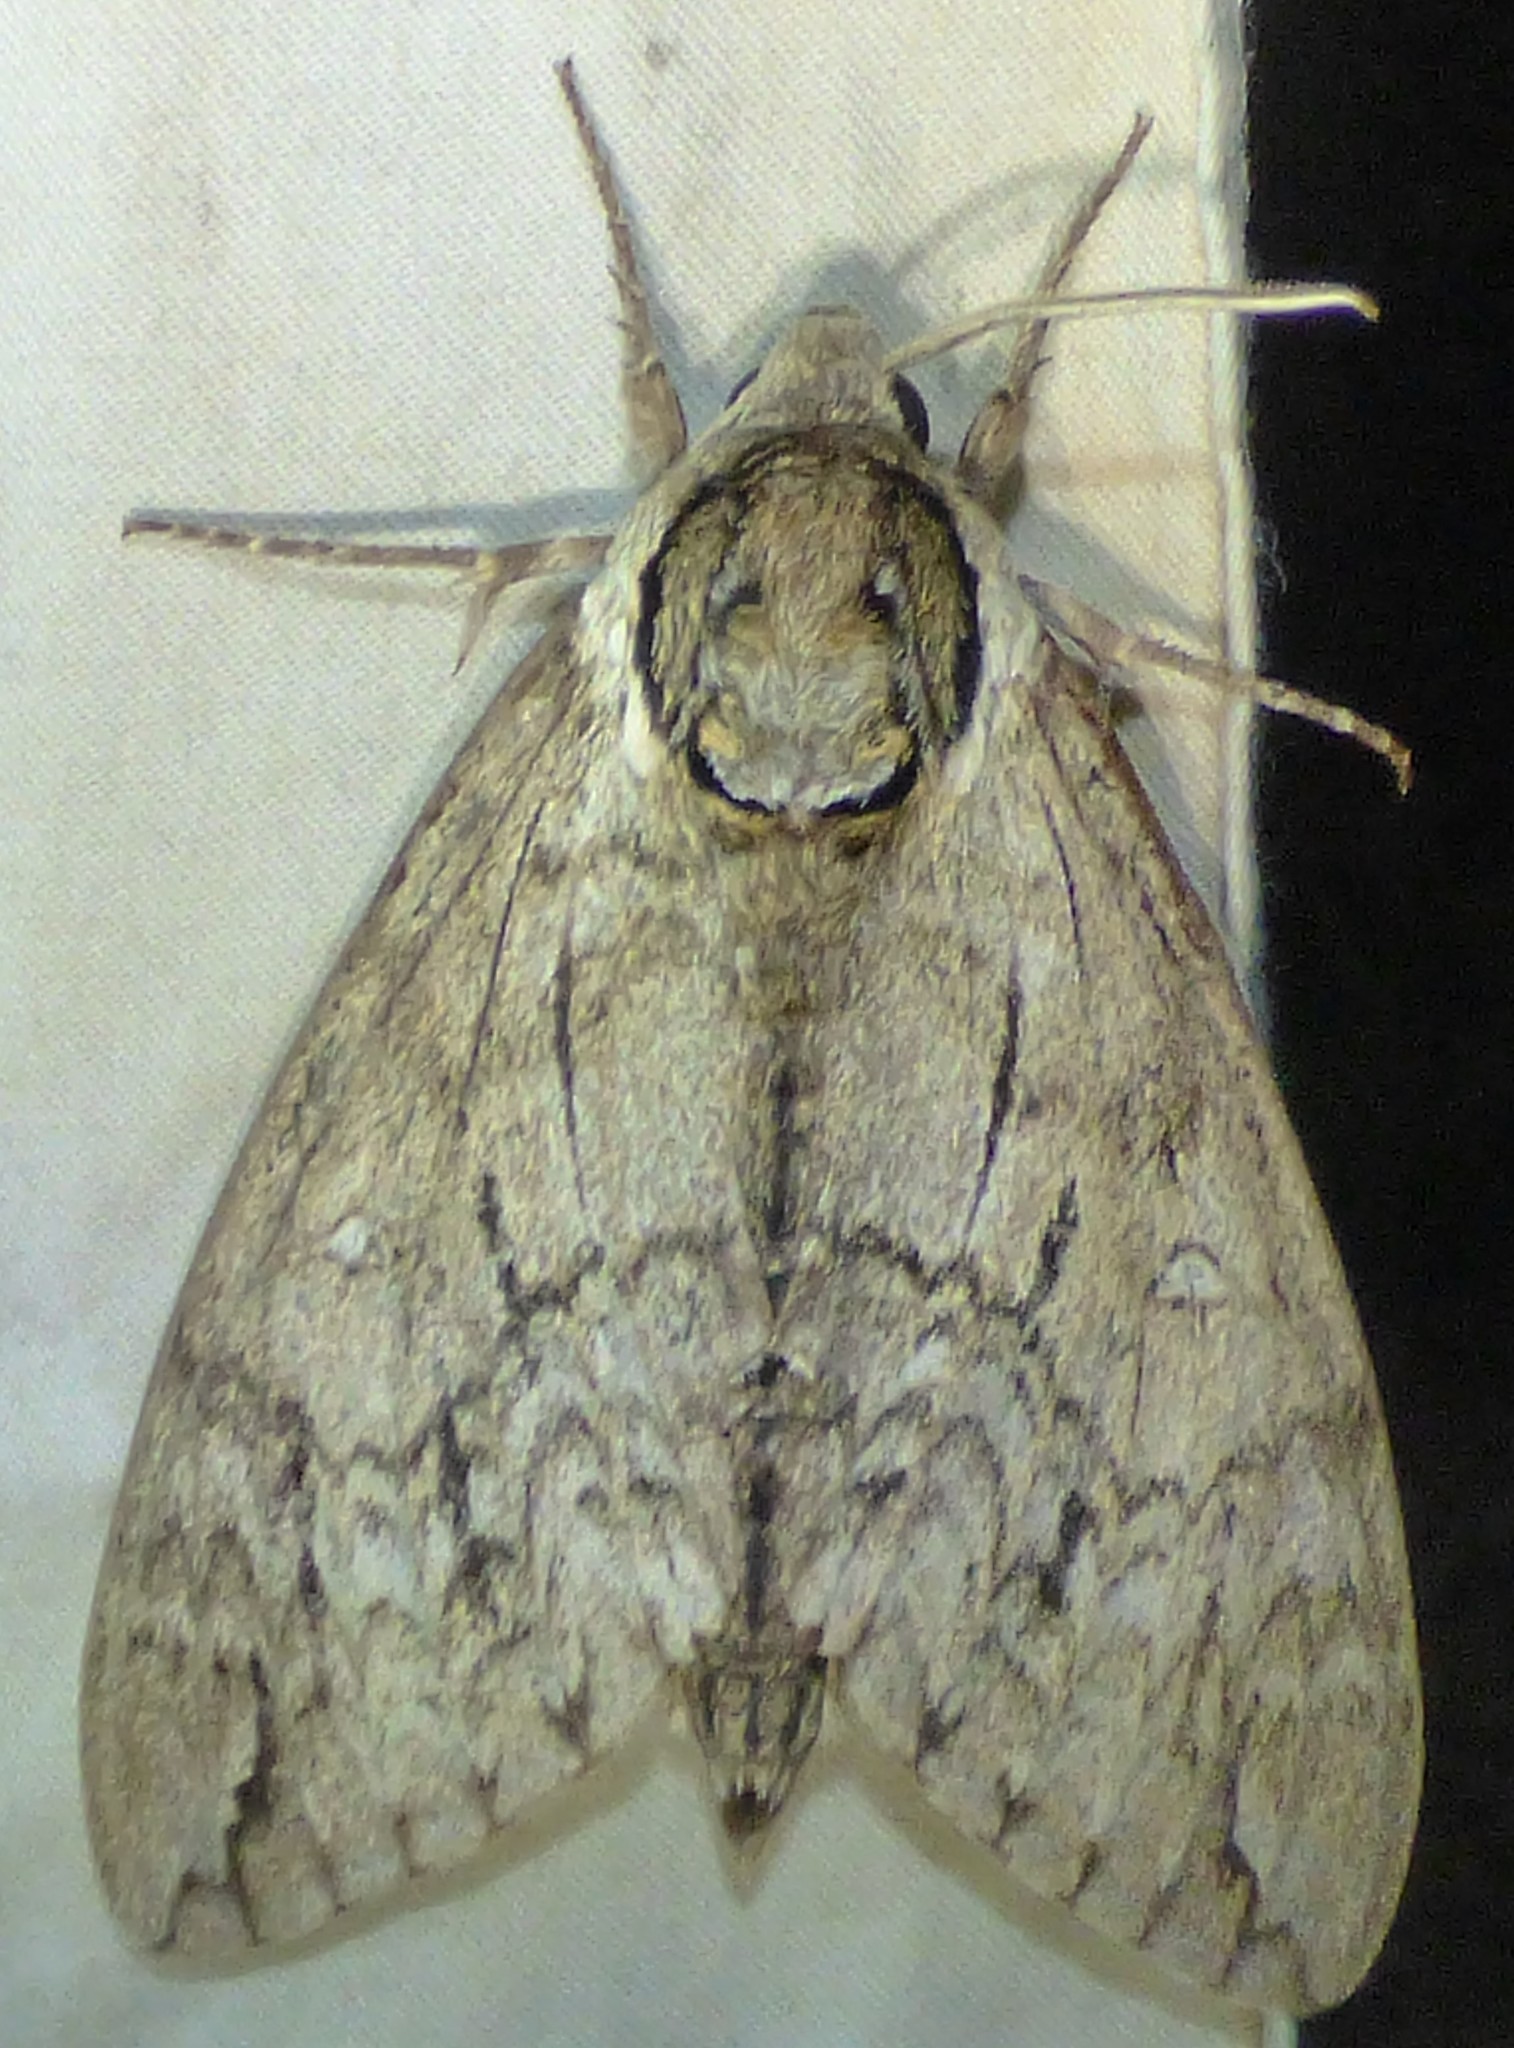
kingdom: Animalia
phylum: Arthropoda
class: Insecta
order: Lepidoptera
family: Sphingidae
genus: Ceratomia
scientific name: Ceratomia undulosa
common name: Waved sphinx
